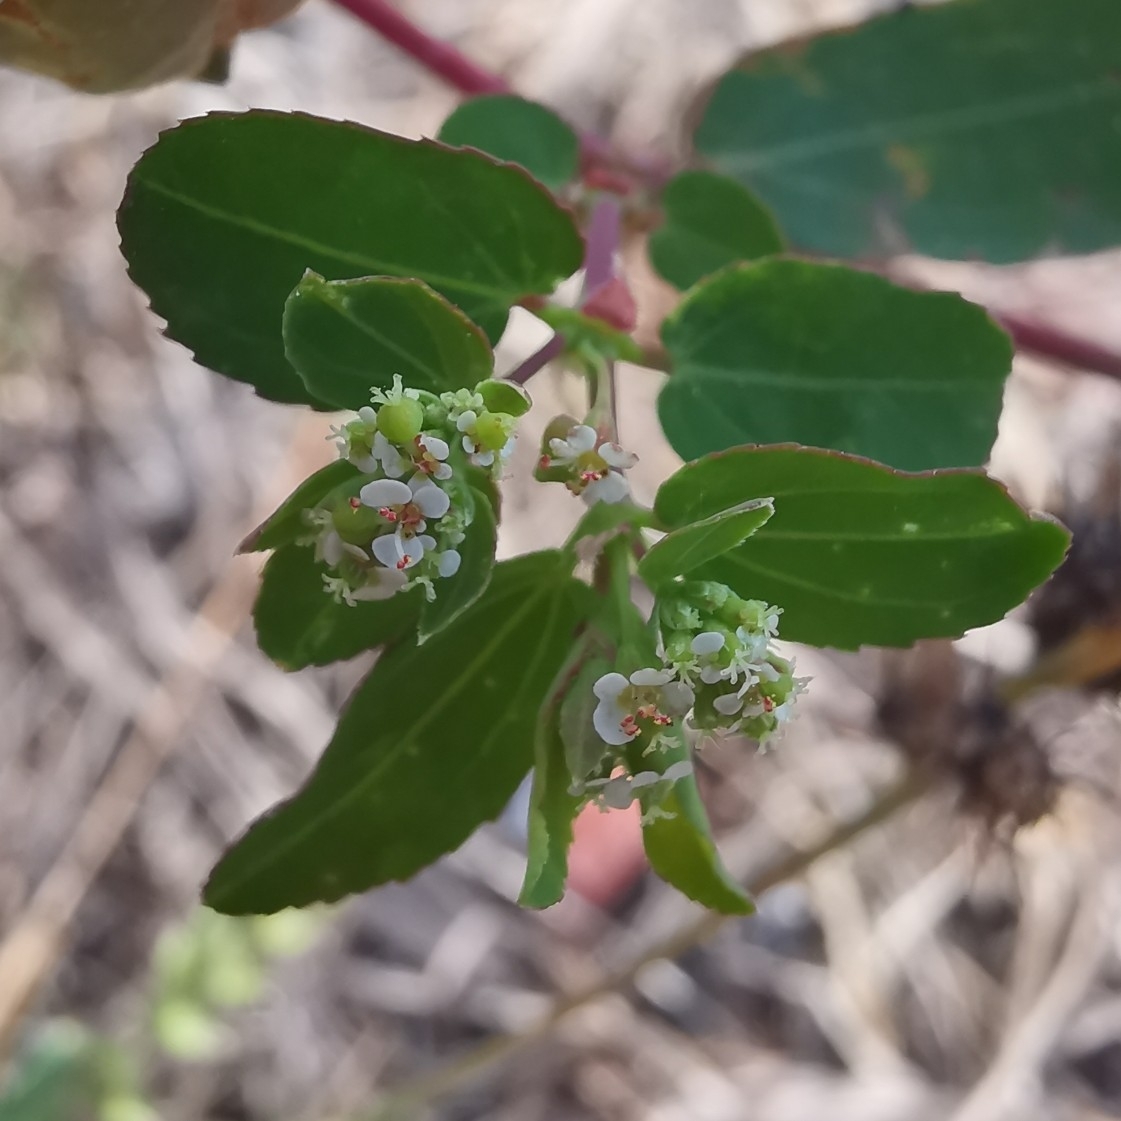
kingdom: Plantae
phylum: Tracheophyta
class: Magnoliopsida
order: Malpighiales
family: Euphorbiaceae
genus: Euphorbia
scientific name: Euphorbia hypericifolia
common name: Graceful sandmat
